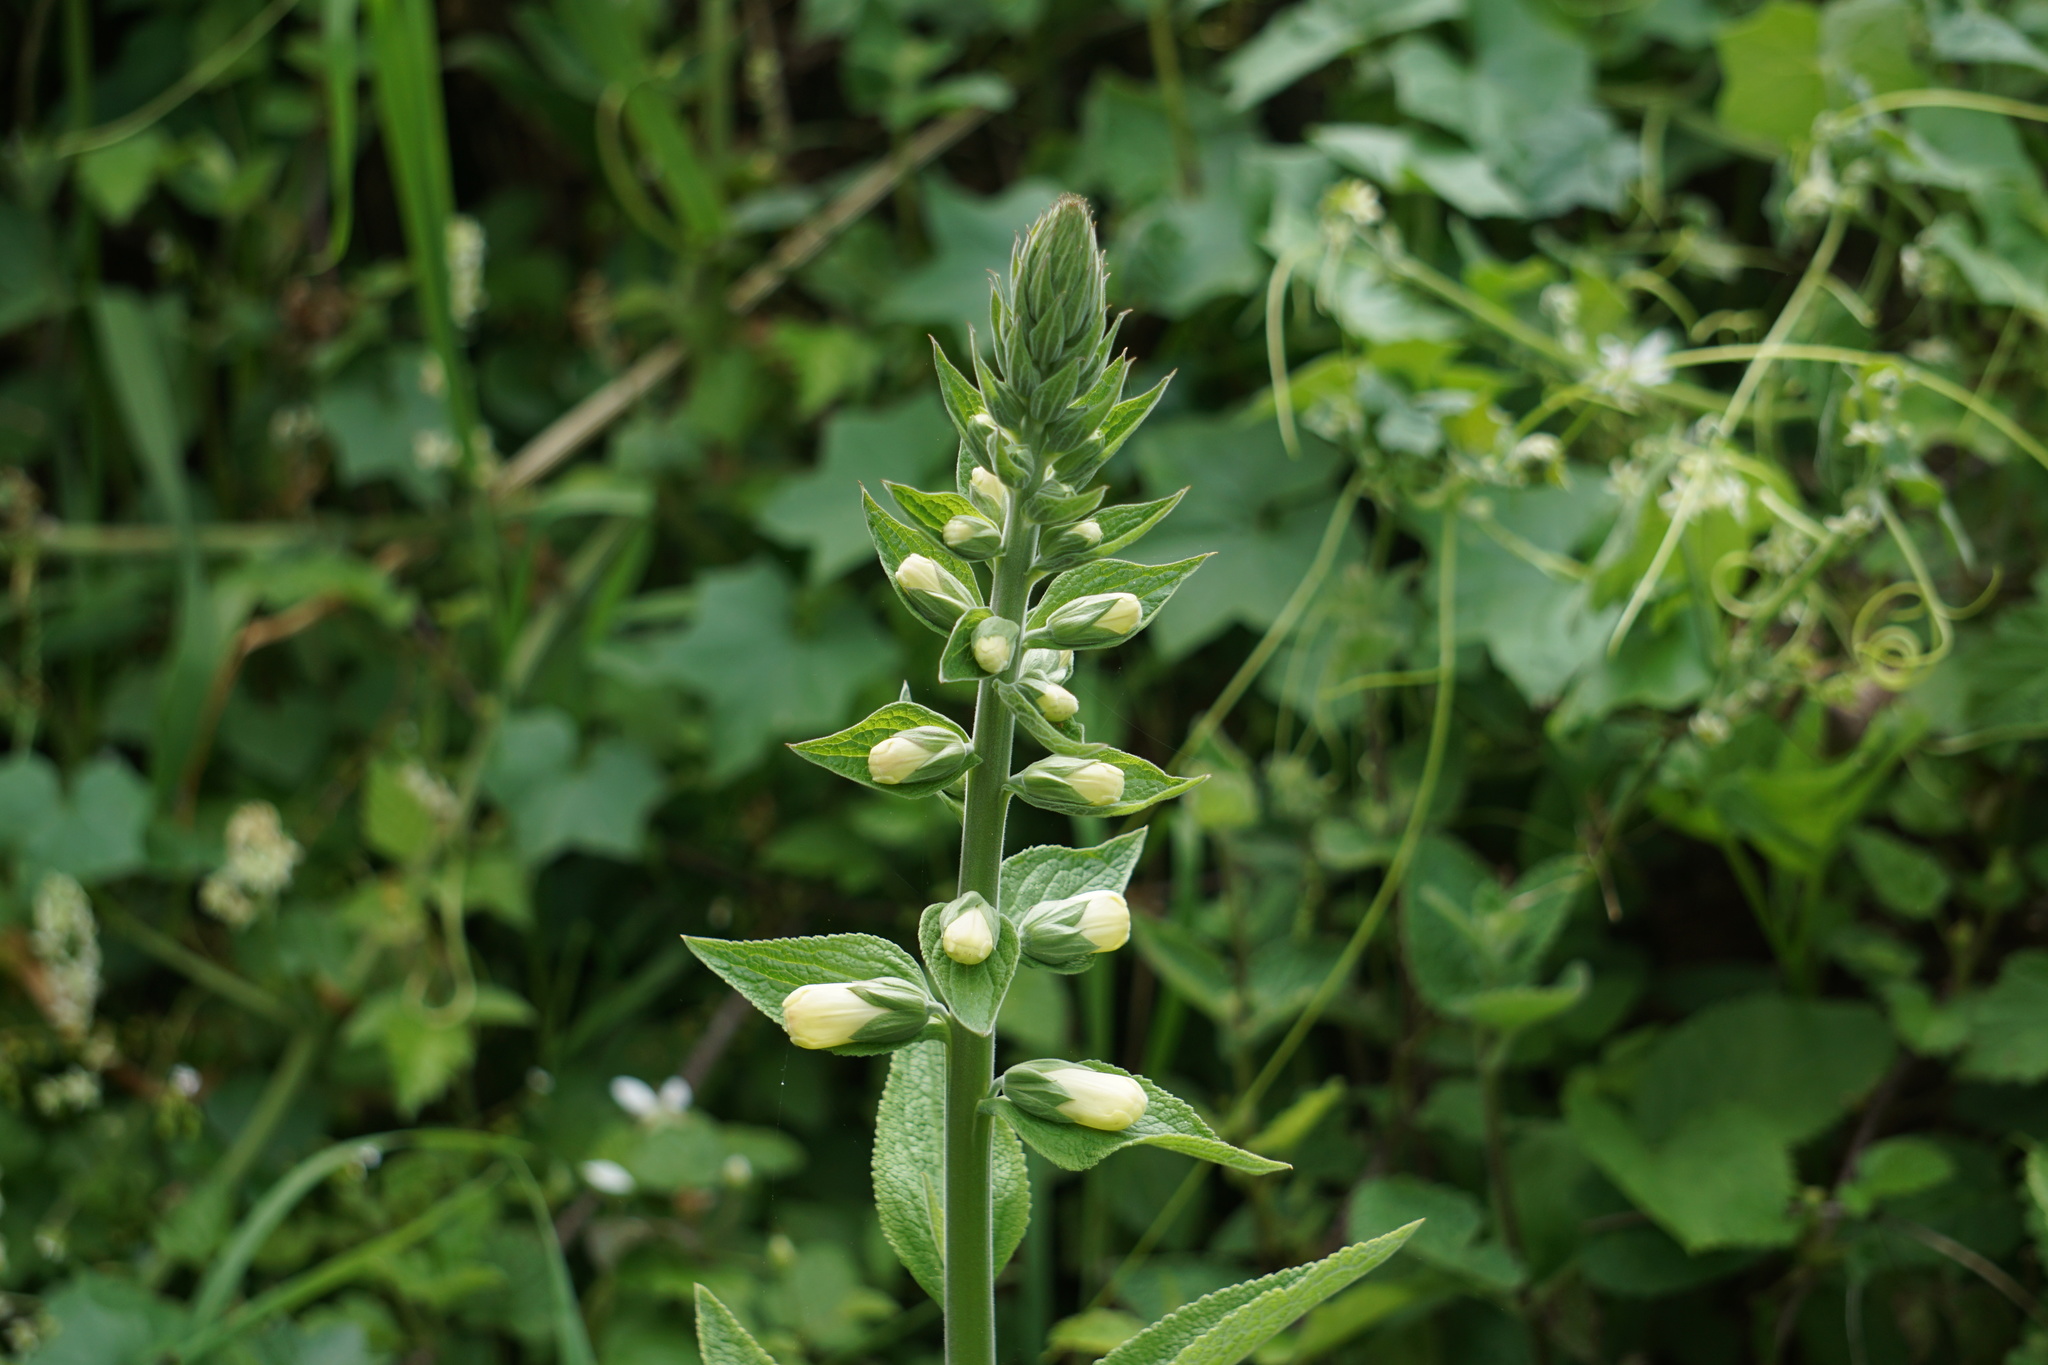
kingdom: Plantae
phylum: Tracheophyta
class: Magnoliopsida
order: Lamiales
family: Plantaginaceae
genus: Digitalis
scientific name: Digitalis purpurea
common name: Foxglove
